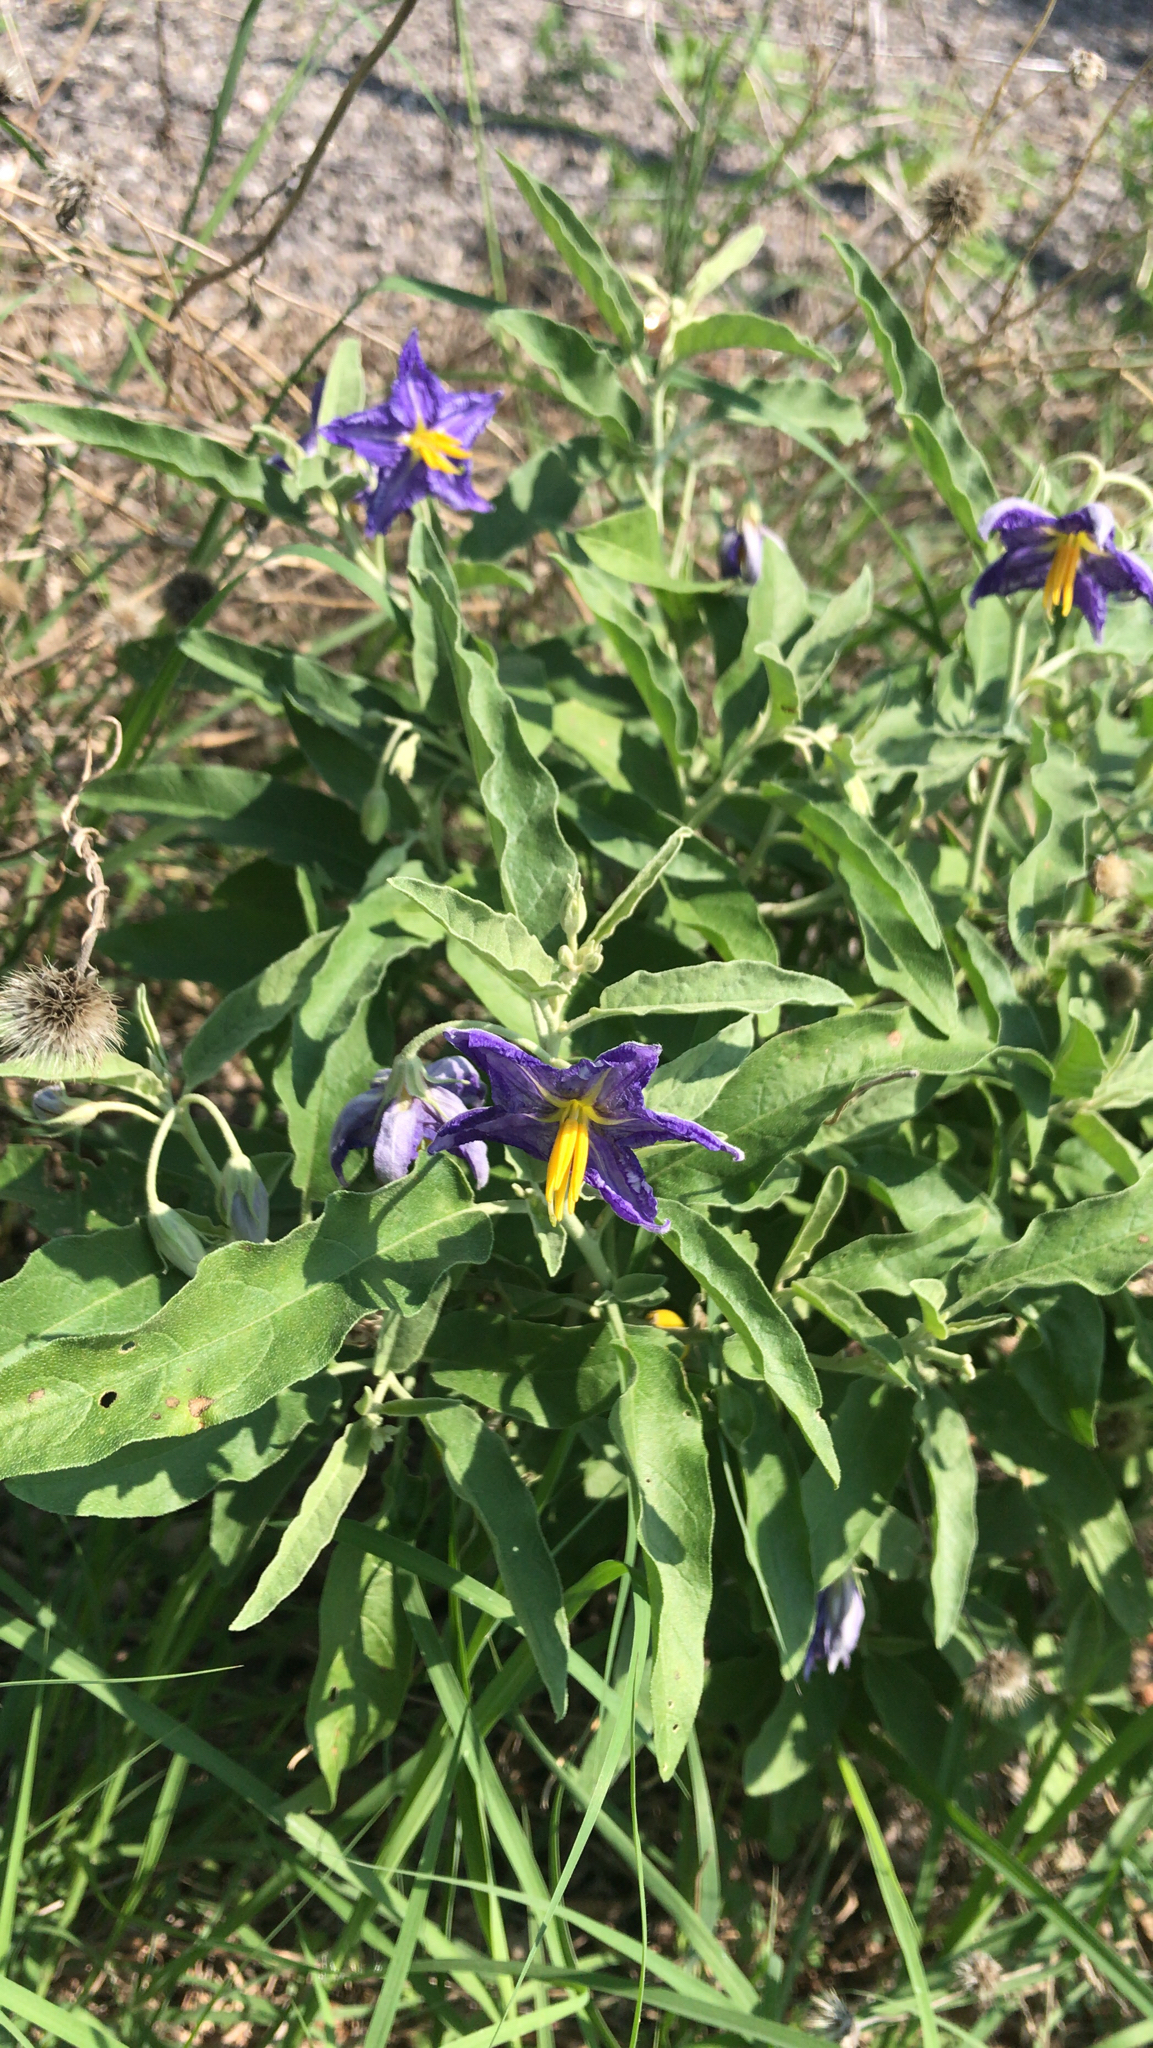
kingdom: Plantae
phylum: Tracheophyta
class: Magnoliopsida
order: Solanales
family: Solanaceae
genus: Solanum
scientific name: Solanum elaeagnifolium
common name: Silverleaf nightshade
